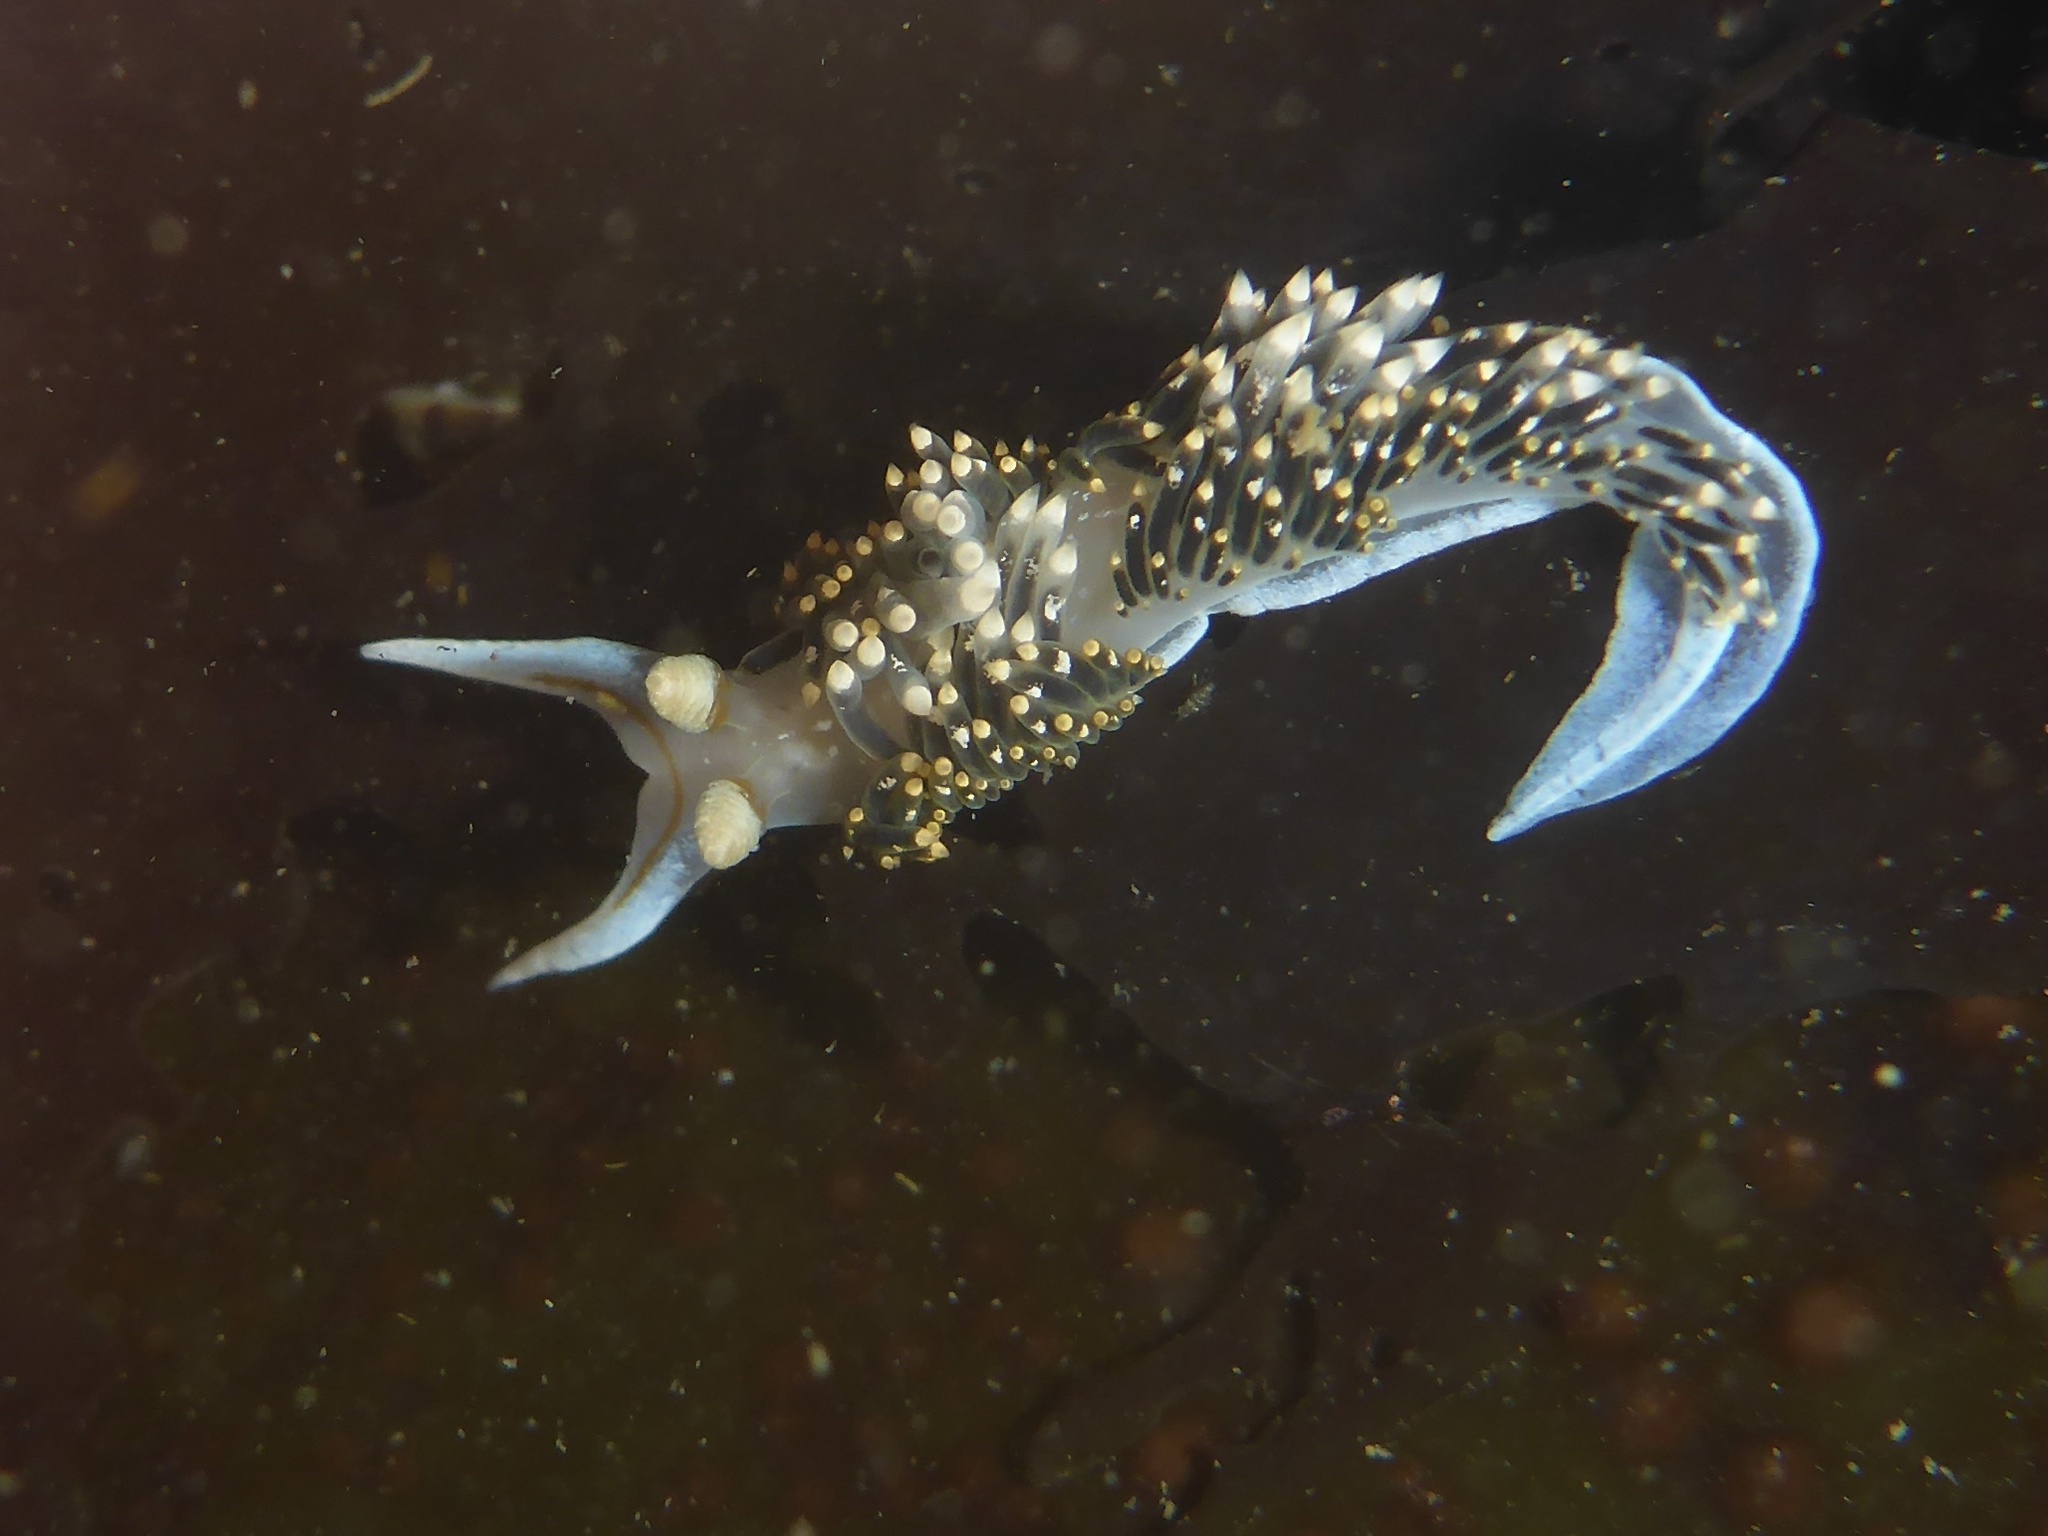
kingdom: Animalia
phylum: Mollusca
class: Gastropoda
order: Nudibranchia
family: Facelinidae
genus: Phidiana
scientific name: Phidiana hiltoni
